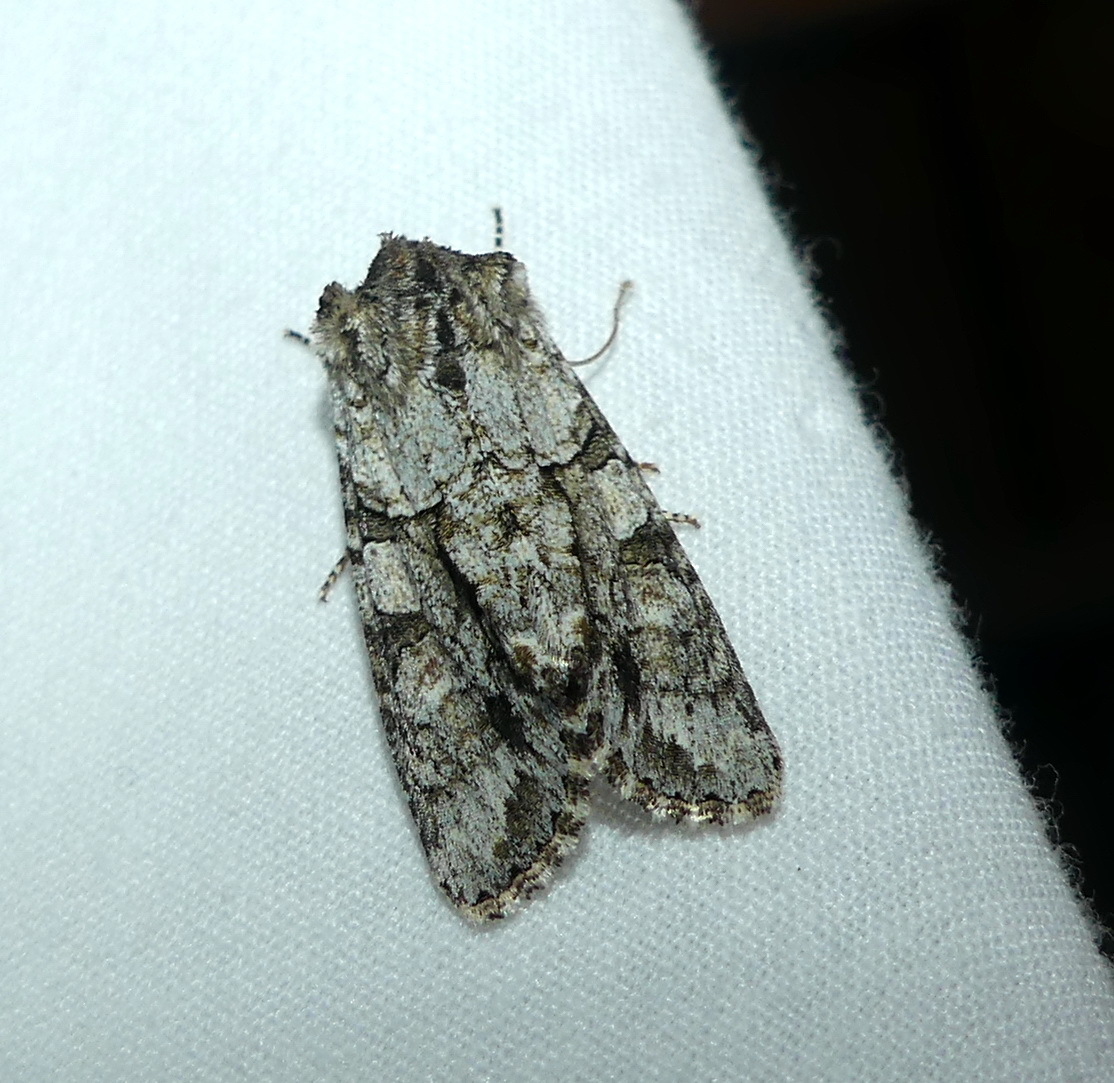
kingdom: Animalia
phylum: Arthropoda
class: Insecta
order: Lepidoptera
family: Noctuidae
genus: Achatia
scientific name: Achatia distincta
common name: Distinct quaker
